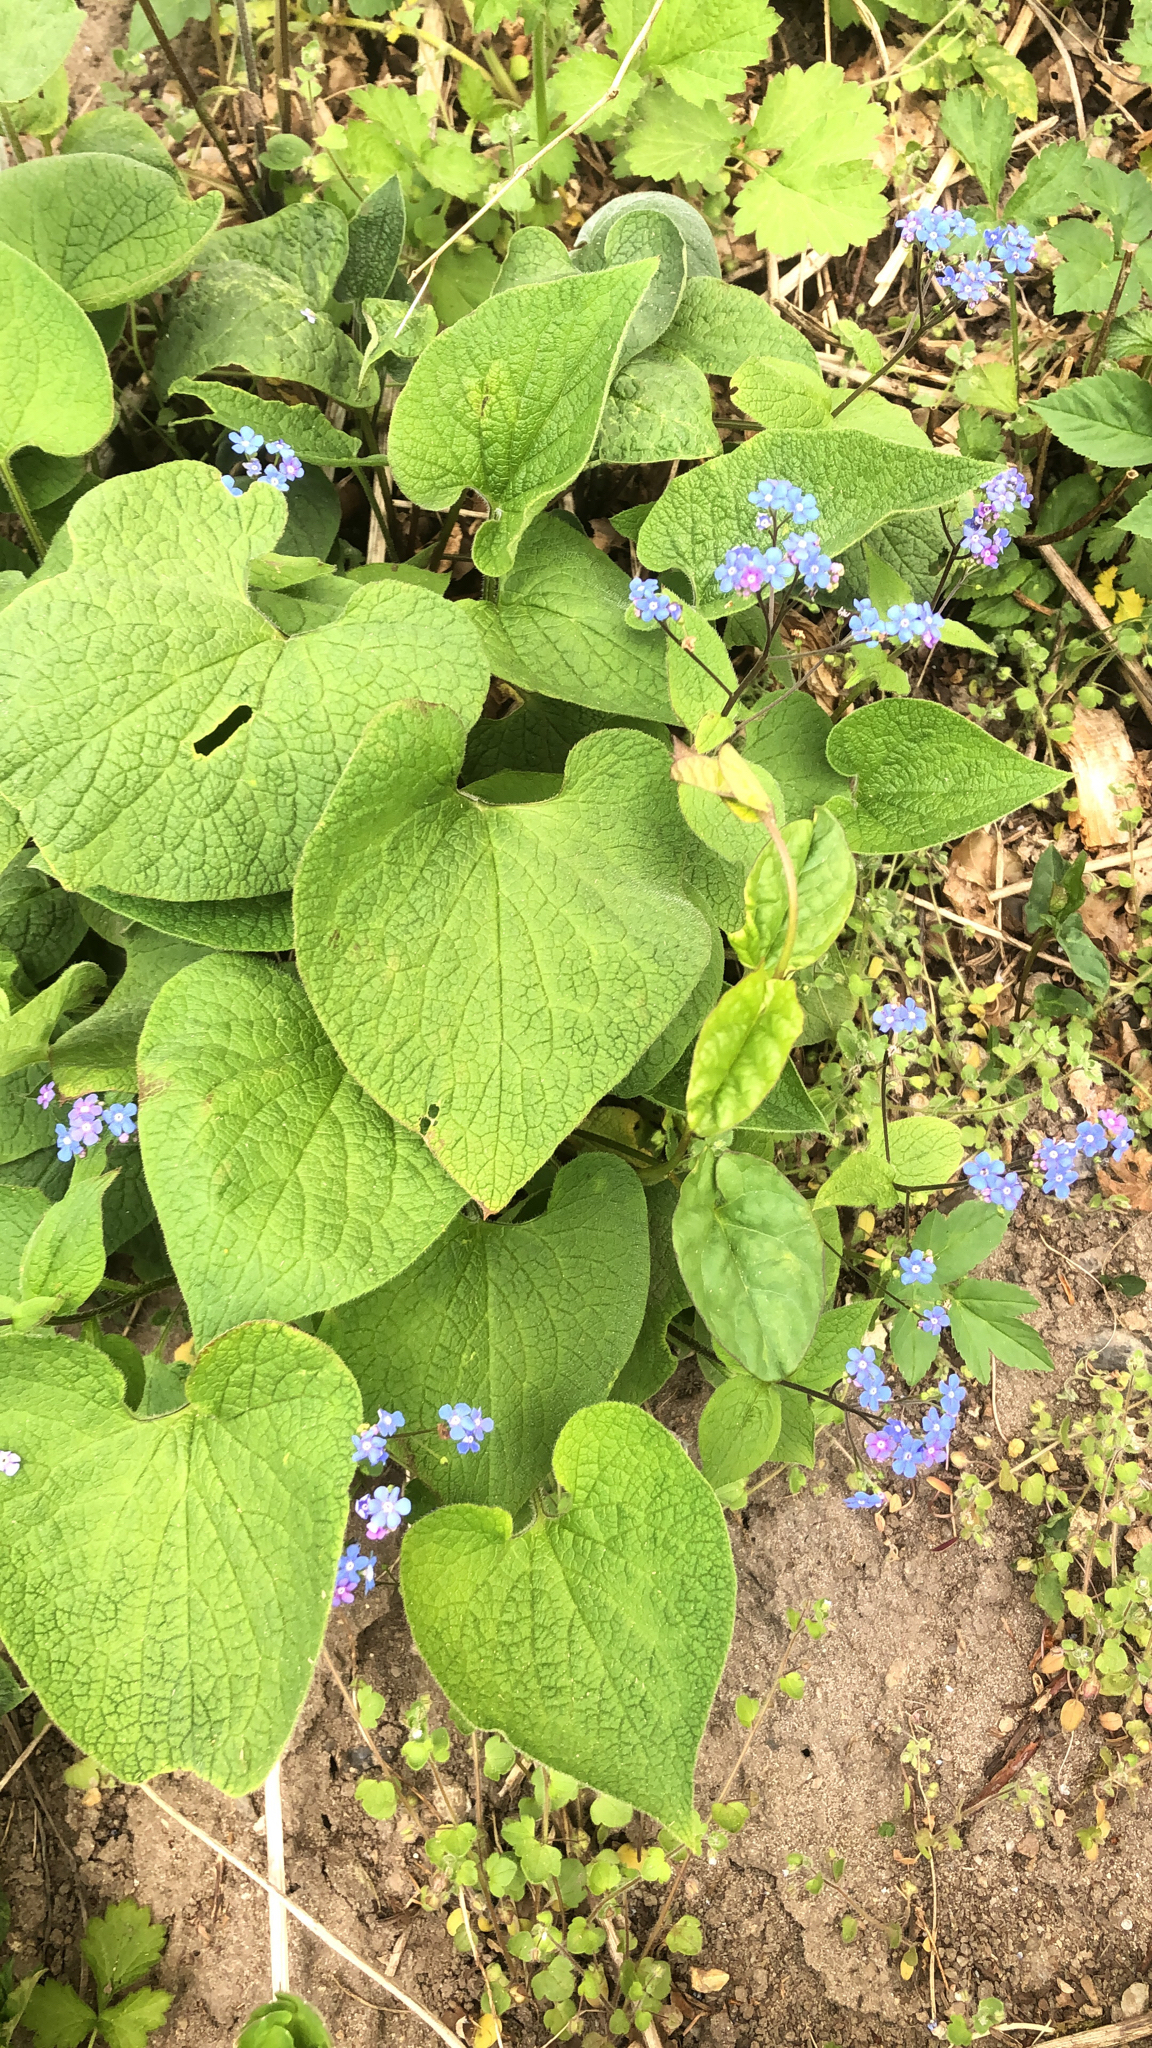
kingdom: Plantae
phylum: Tracheophyta
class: Magnoliopsida
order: Boraginales
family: Boraginaceae
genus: Brunnera
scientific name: Brunnera macrophylla
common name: Great forget-me-not
